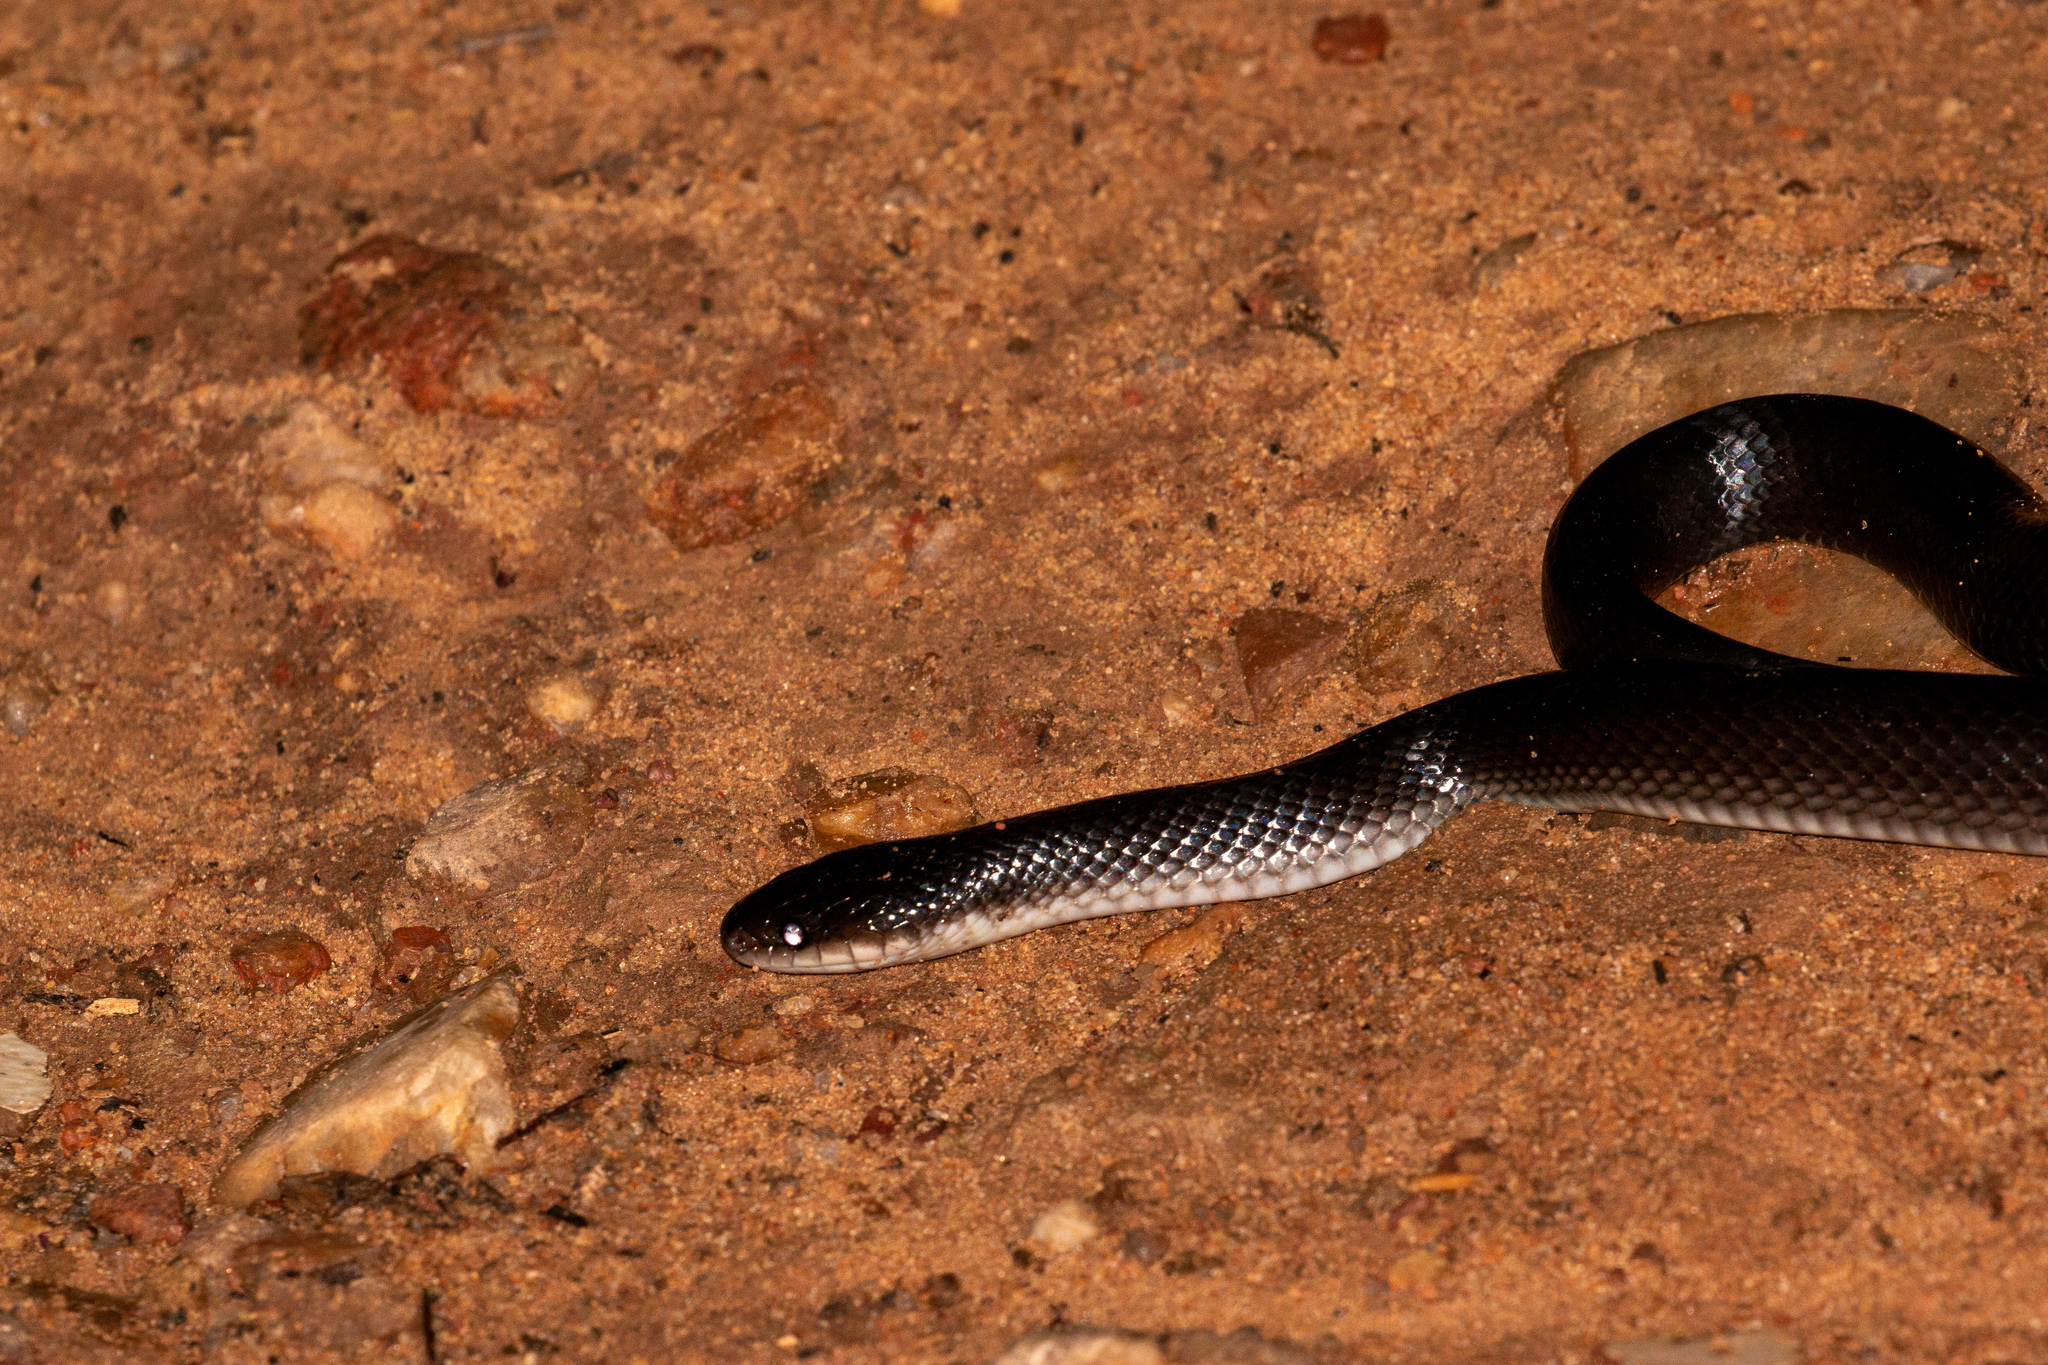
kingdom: Animalia
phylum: Chordata
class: Squamata
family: Colubridae
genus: Boiruna
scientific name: Boiruna sertaneja
